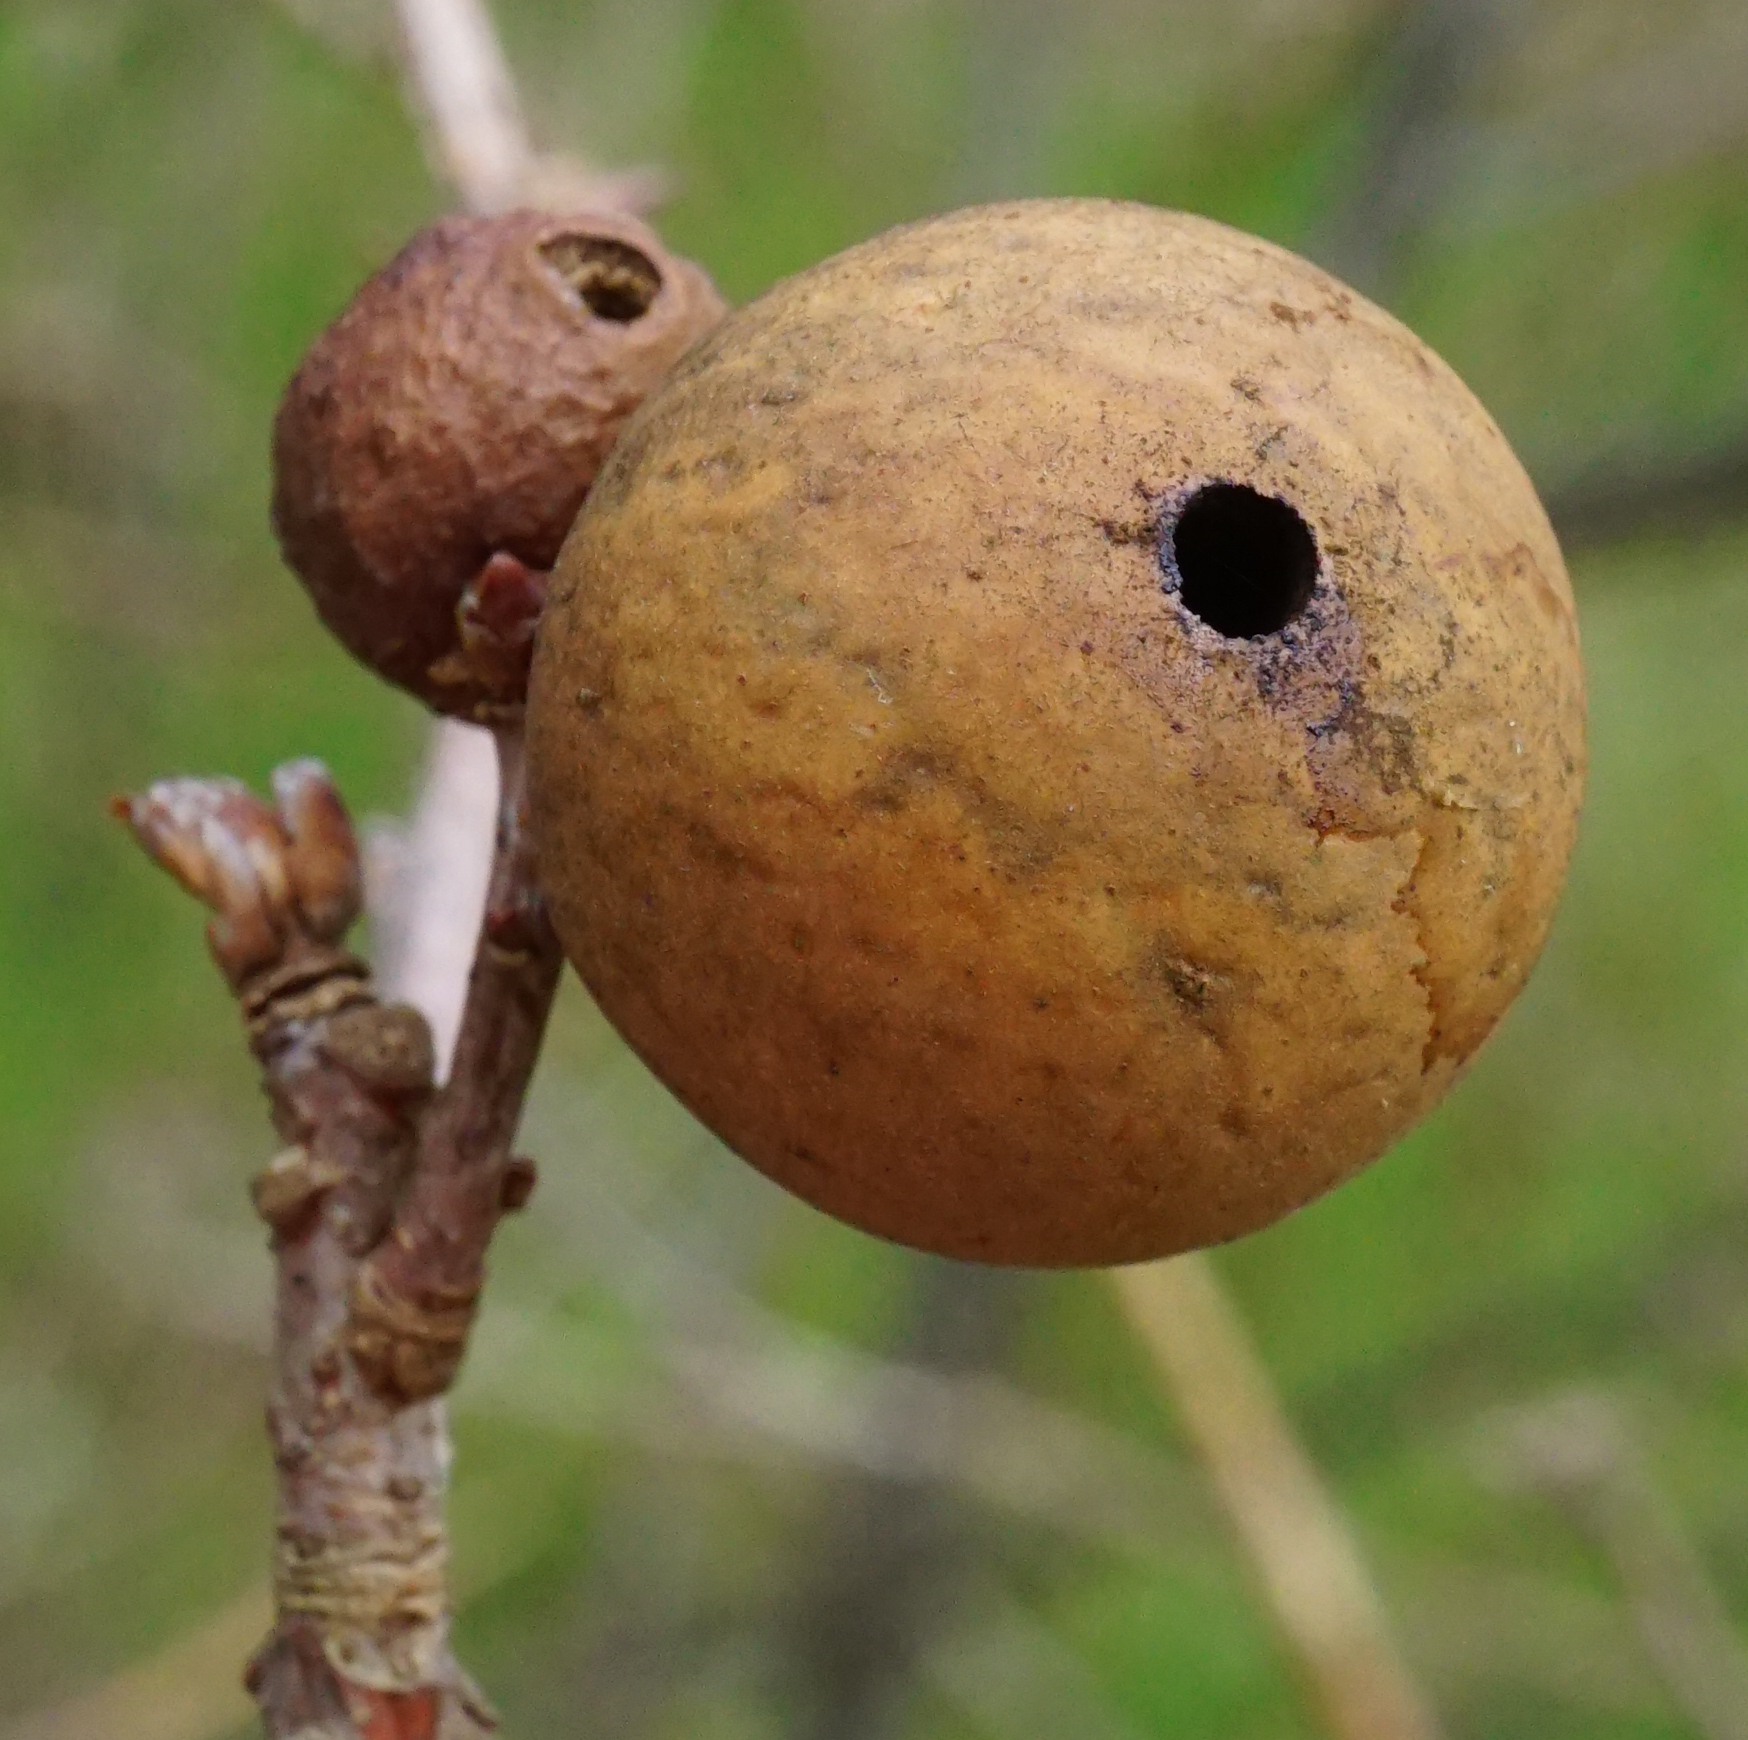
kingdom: Animalia
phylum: Arthropoda
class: Insecta
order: Hymenoptera
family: Cynipidae
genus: Andricus
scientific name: Andricus kollari
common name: Marble gall
